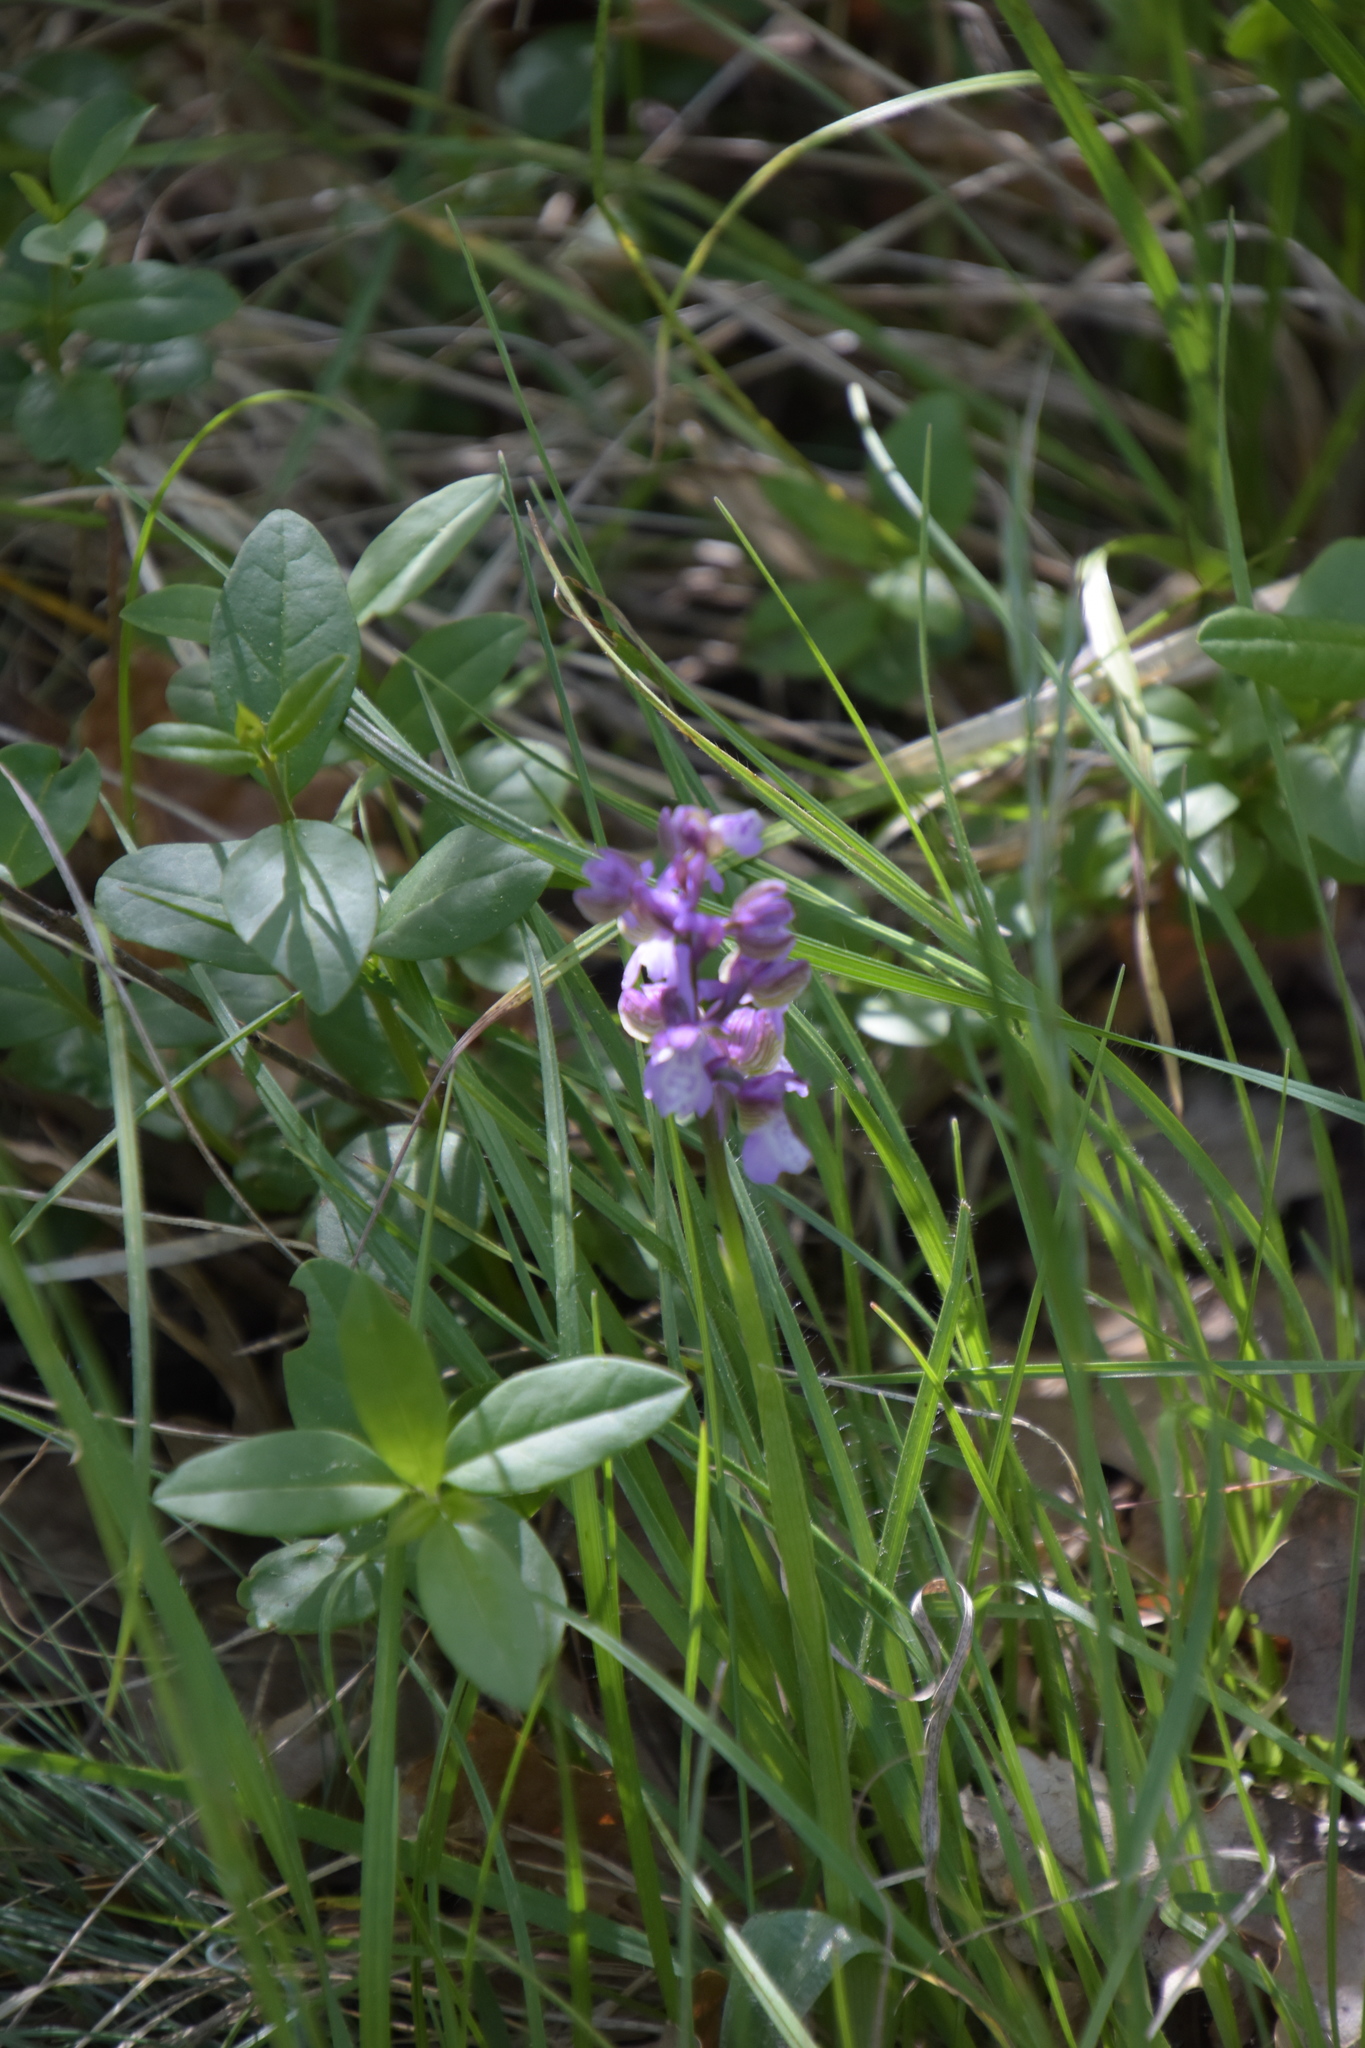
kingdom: Plantae
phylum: Tracheophyta
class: Liliopsida
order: Asparagales
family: Orchidaceae
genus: Anacamptis
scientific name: Anacamptis morio
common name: Green-winged orchid
